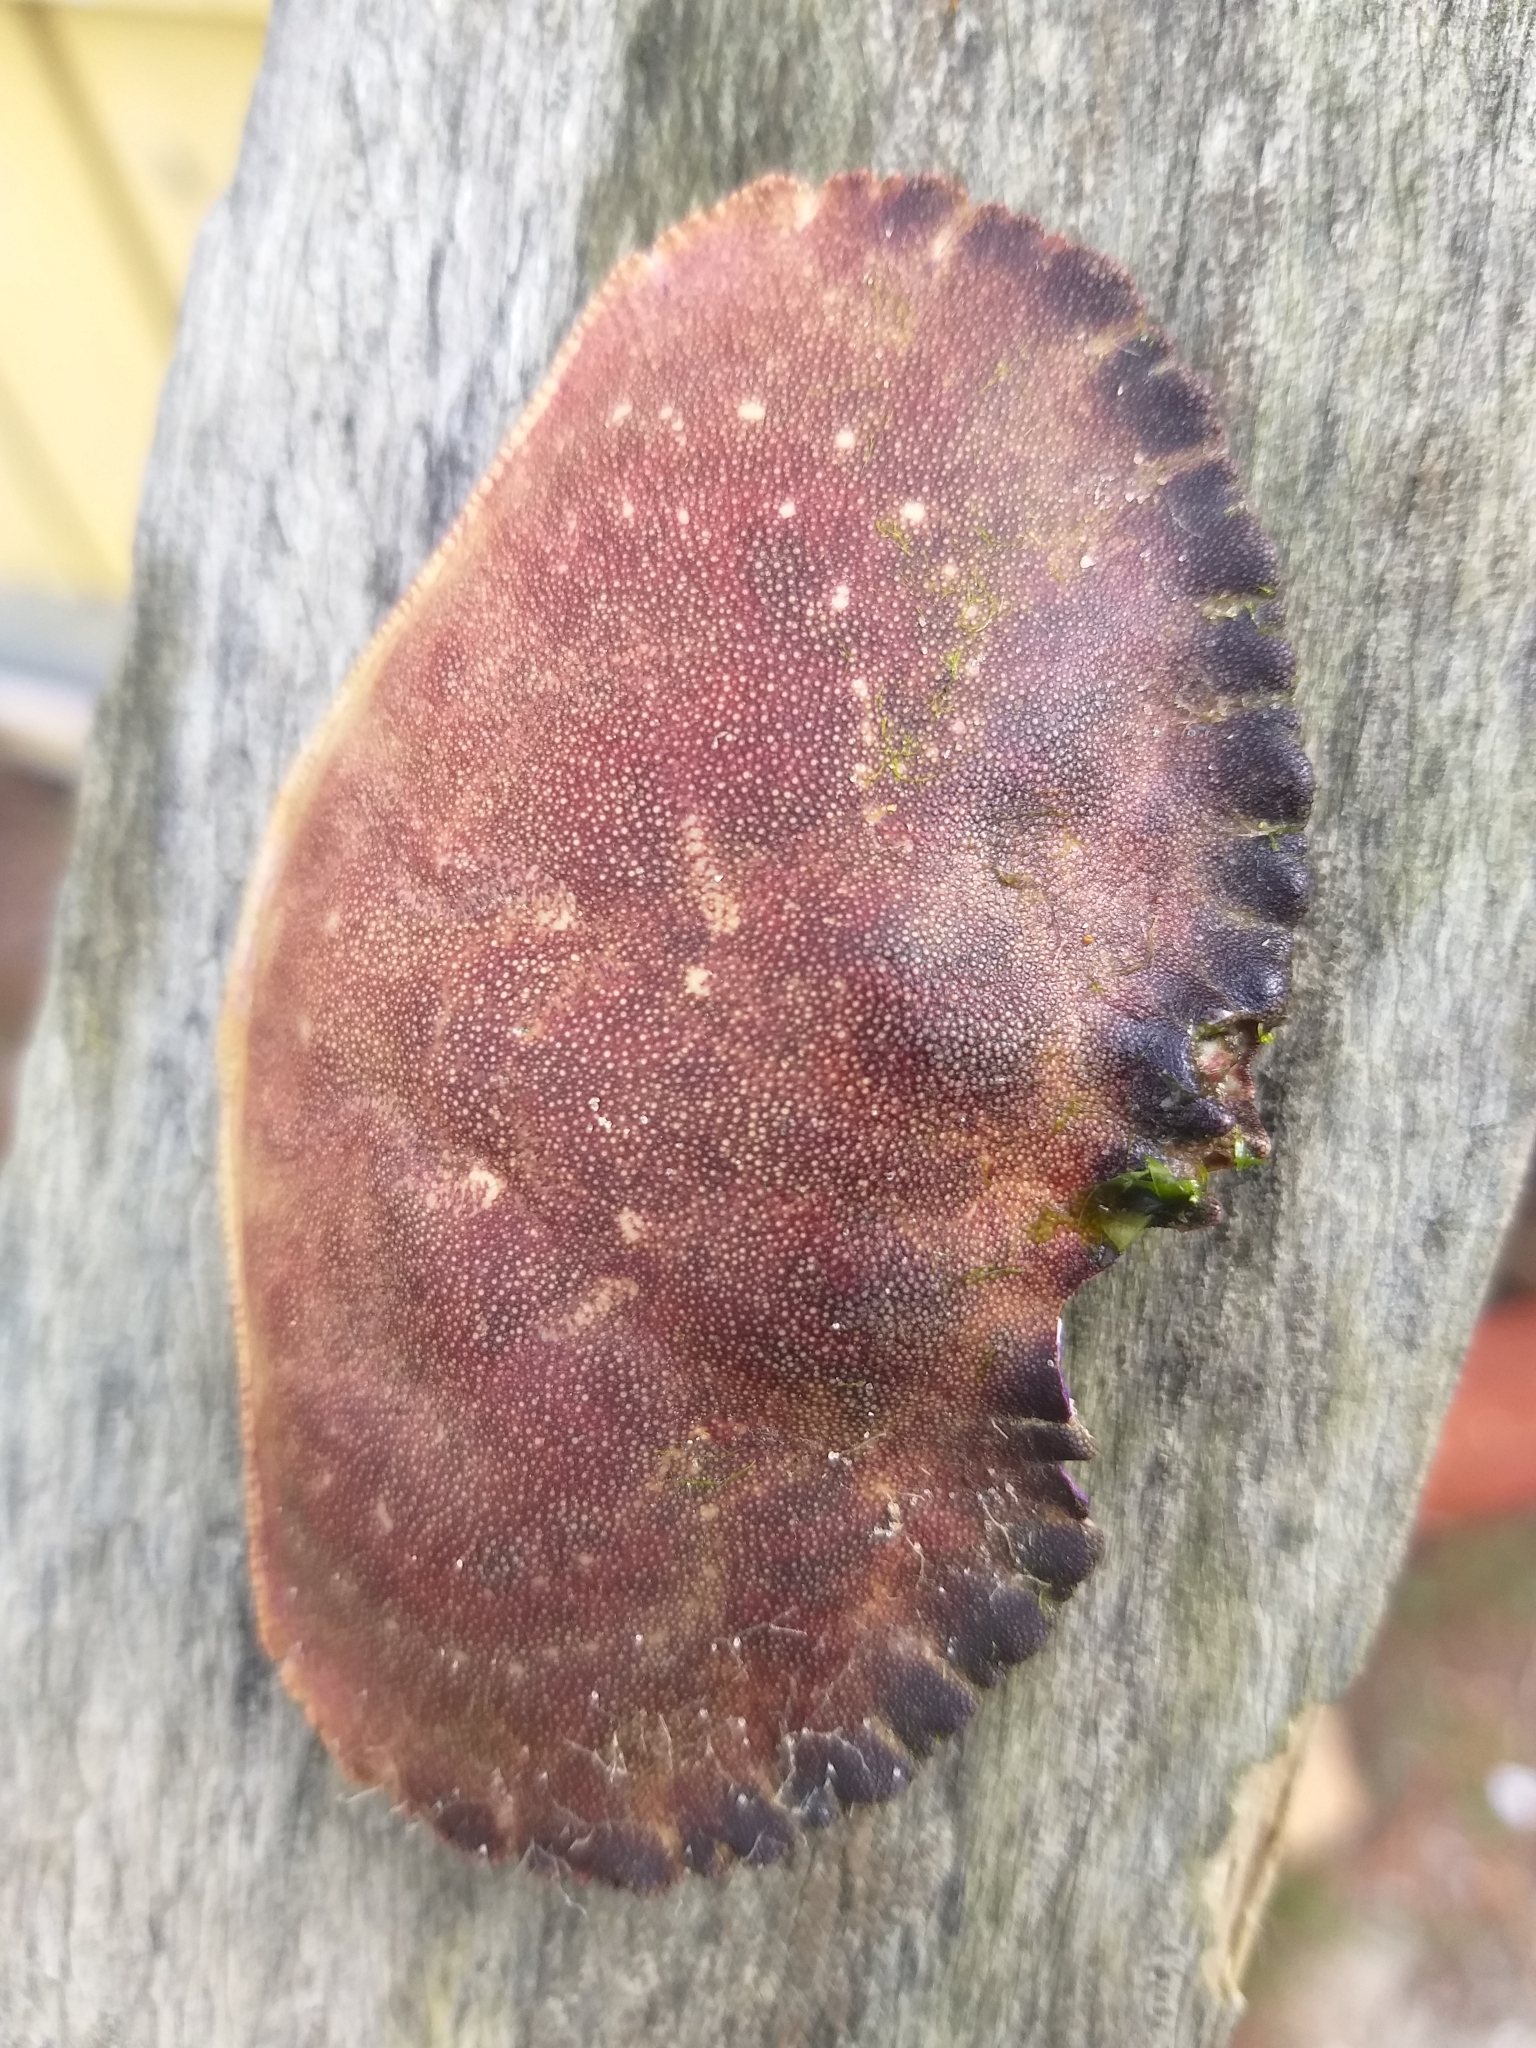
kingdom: Animalia
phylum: Arthropoda
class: Malacostraca
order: Decapoda
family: Cancridae
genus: Metacarcinus
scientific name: Metacarcinus novaezelandiae
